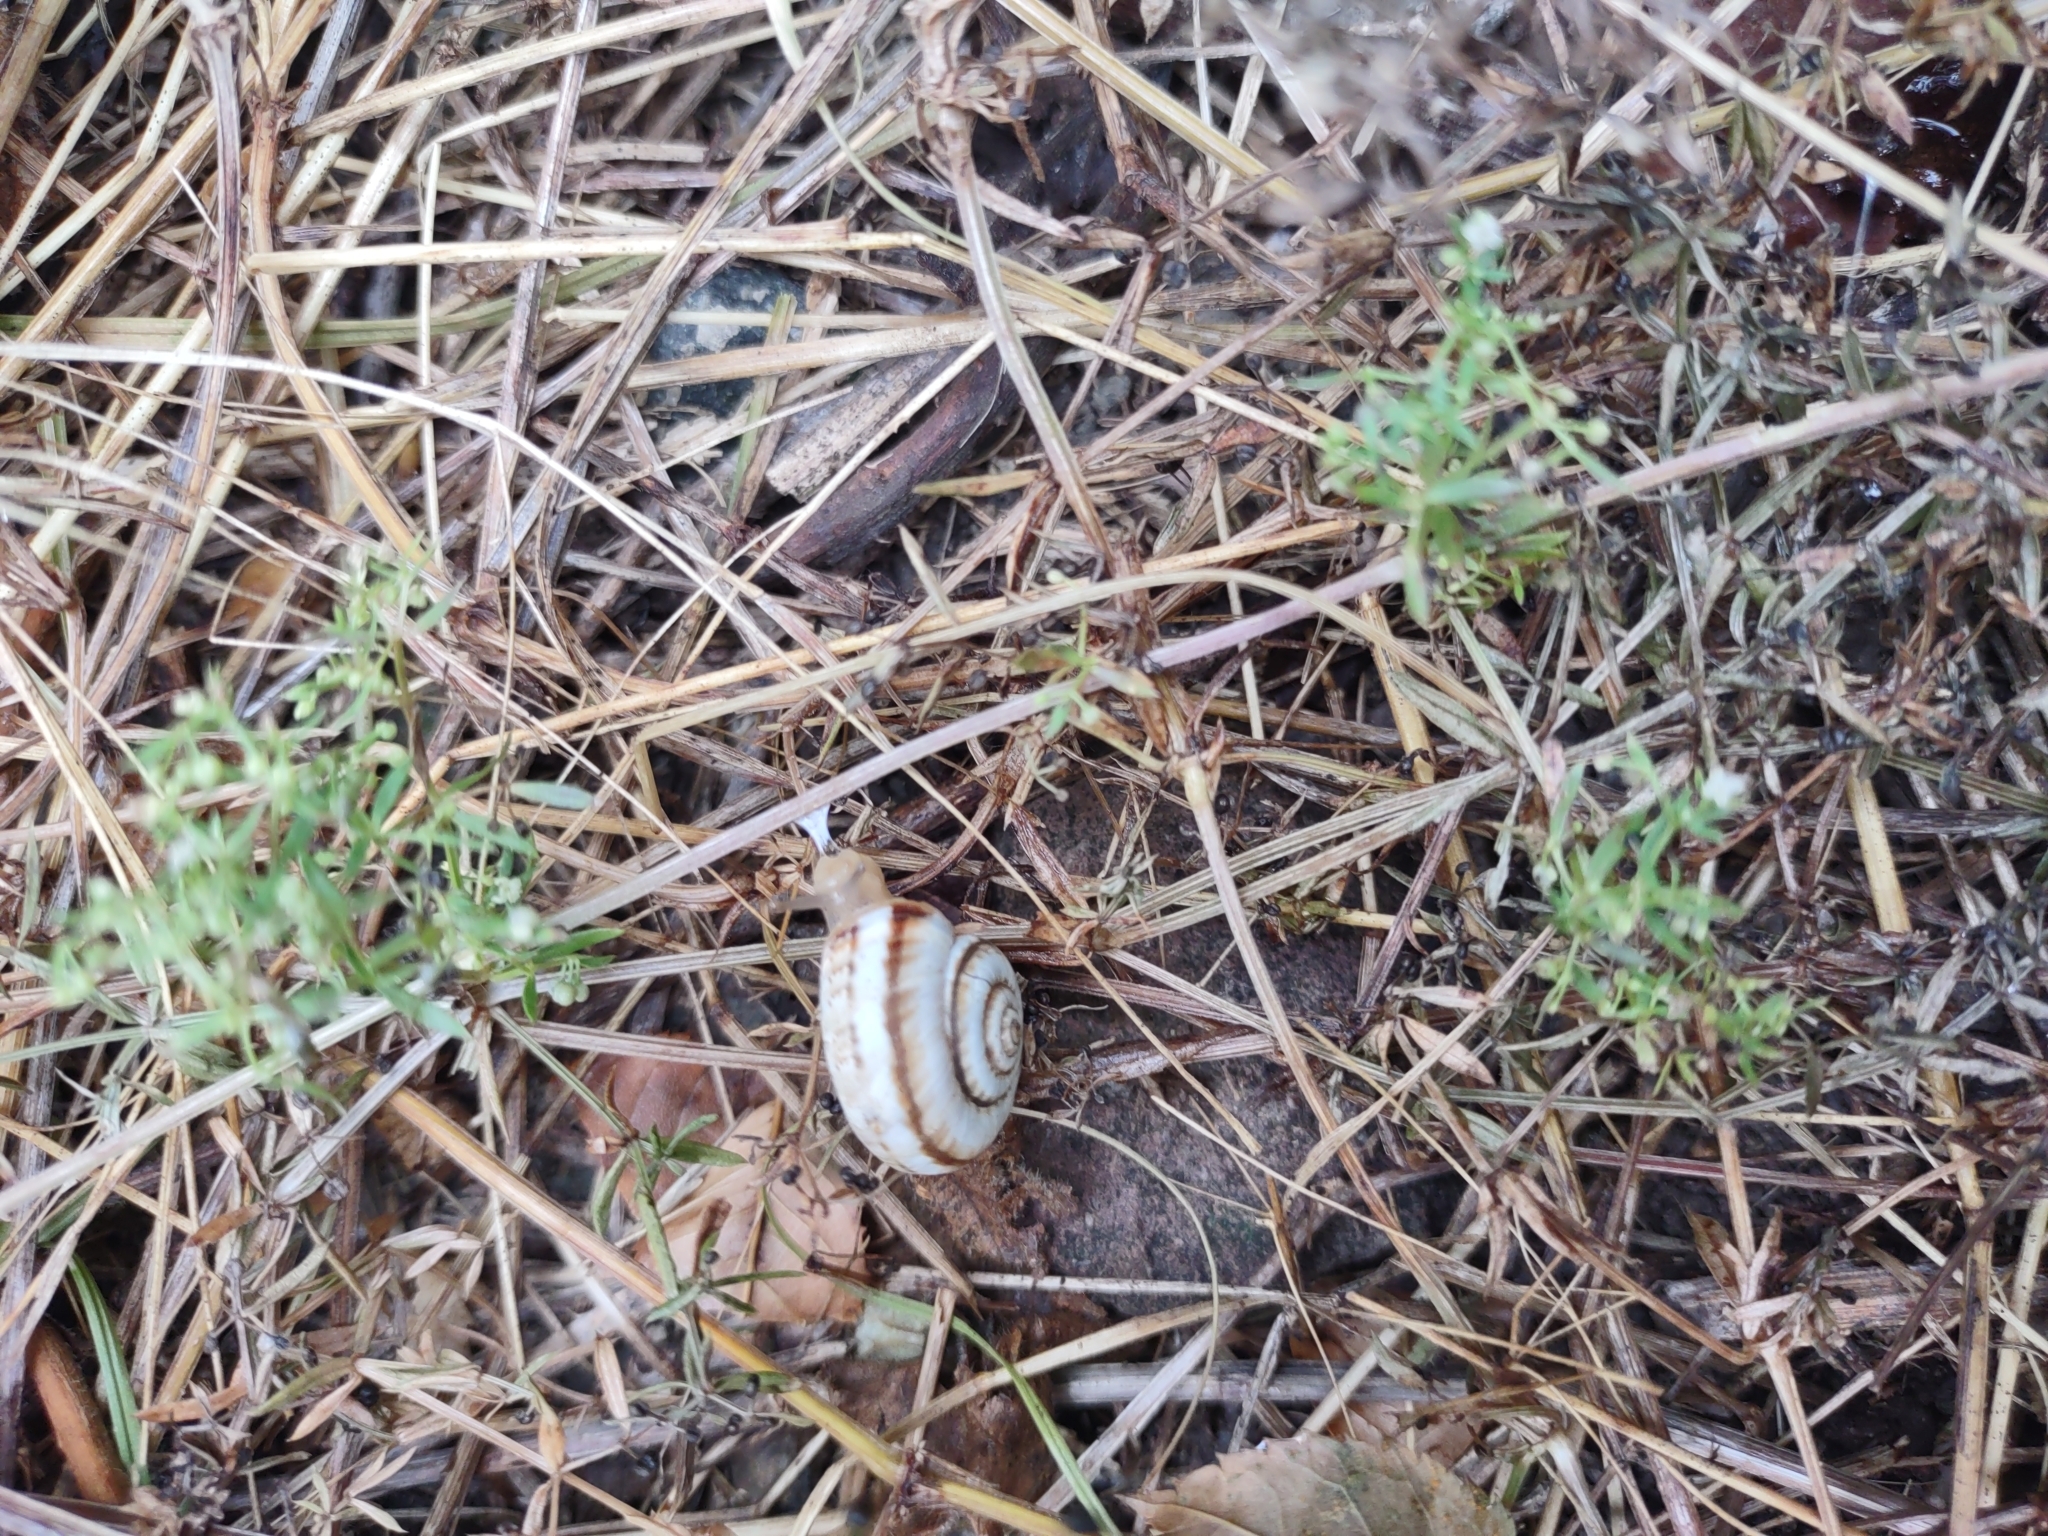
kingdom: Animalia
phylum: Mollusca
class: Gastropoda
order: Stylommatophora
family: Geomitridae
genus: Xeropicta
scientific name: Xeropicta derbentina
